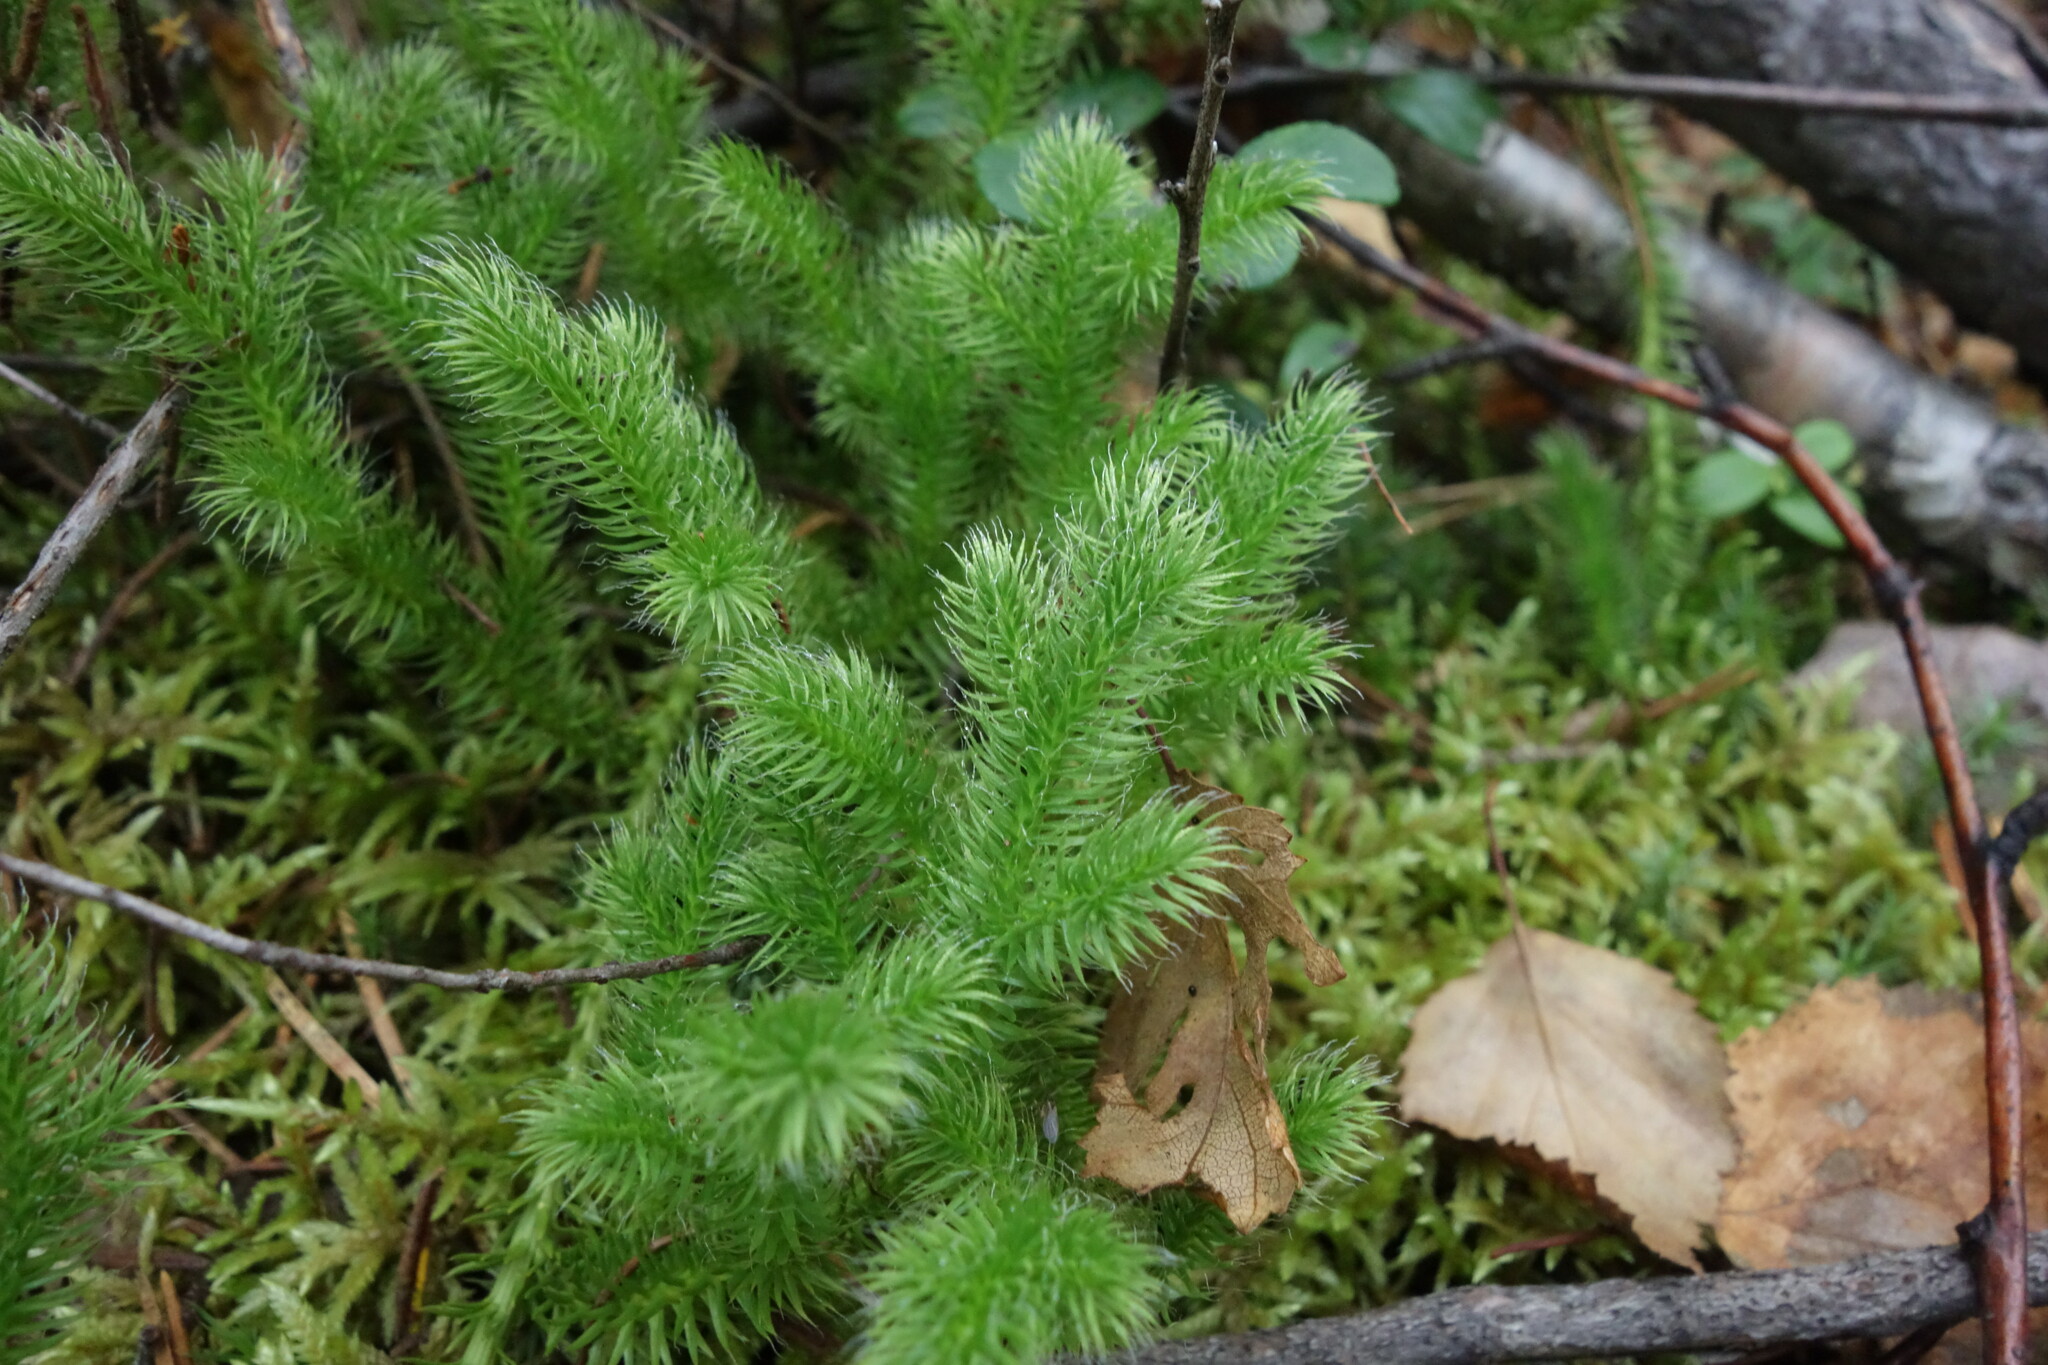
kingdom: Plantae
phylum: Tracheophyta
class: Lycopodiopsida
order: Lycopodiales
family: Lycopodiaceae
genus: Lycopodium
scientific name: Lycopodium clavatum
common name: Stag's-horn clubmoss
